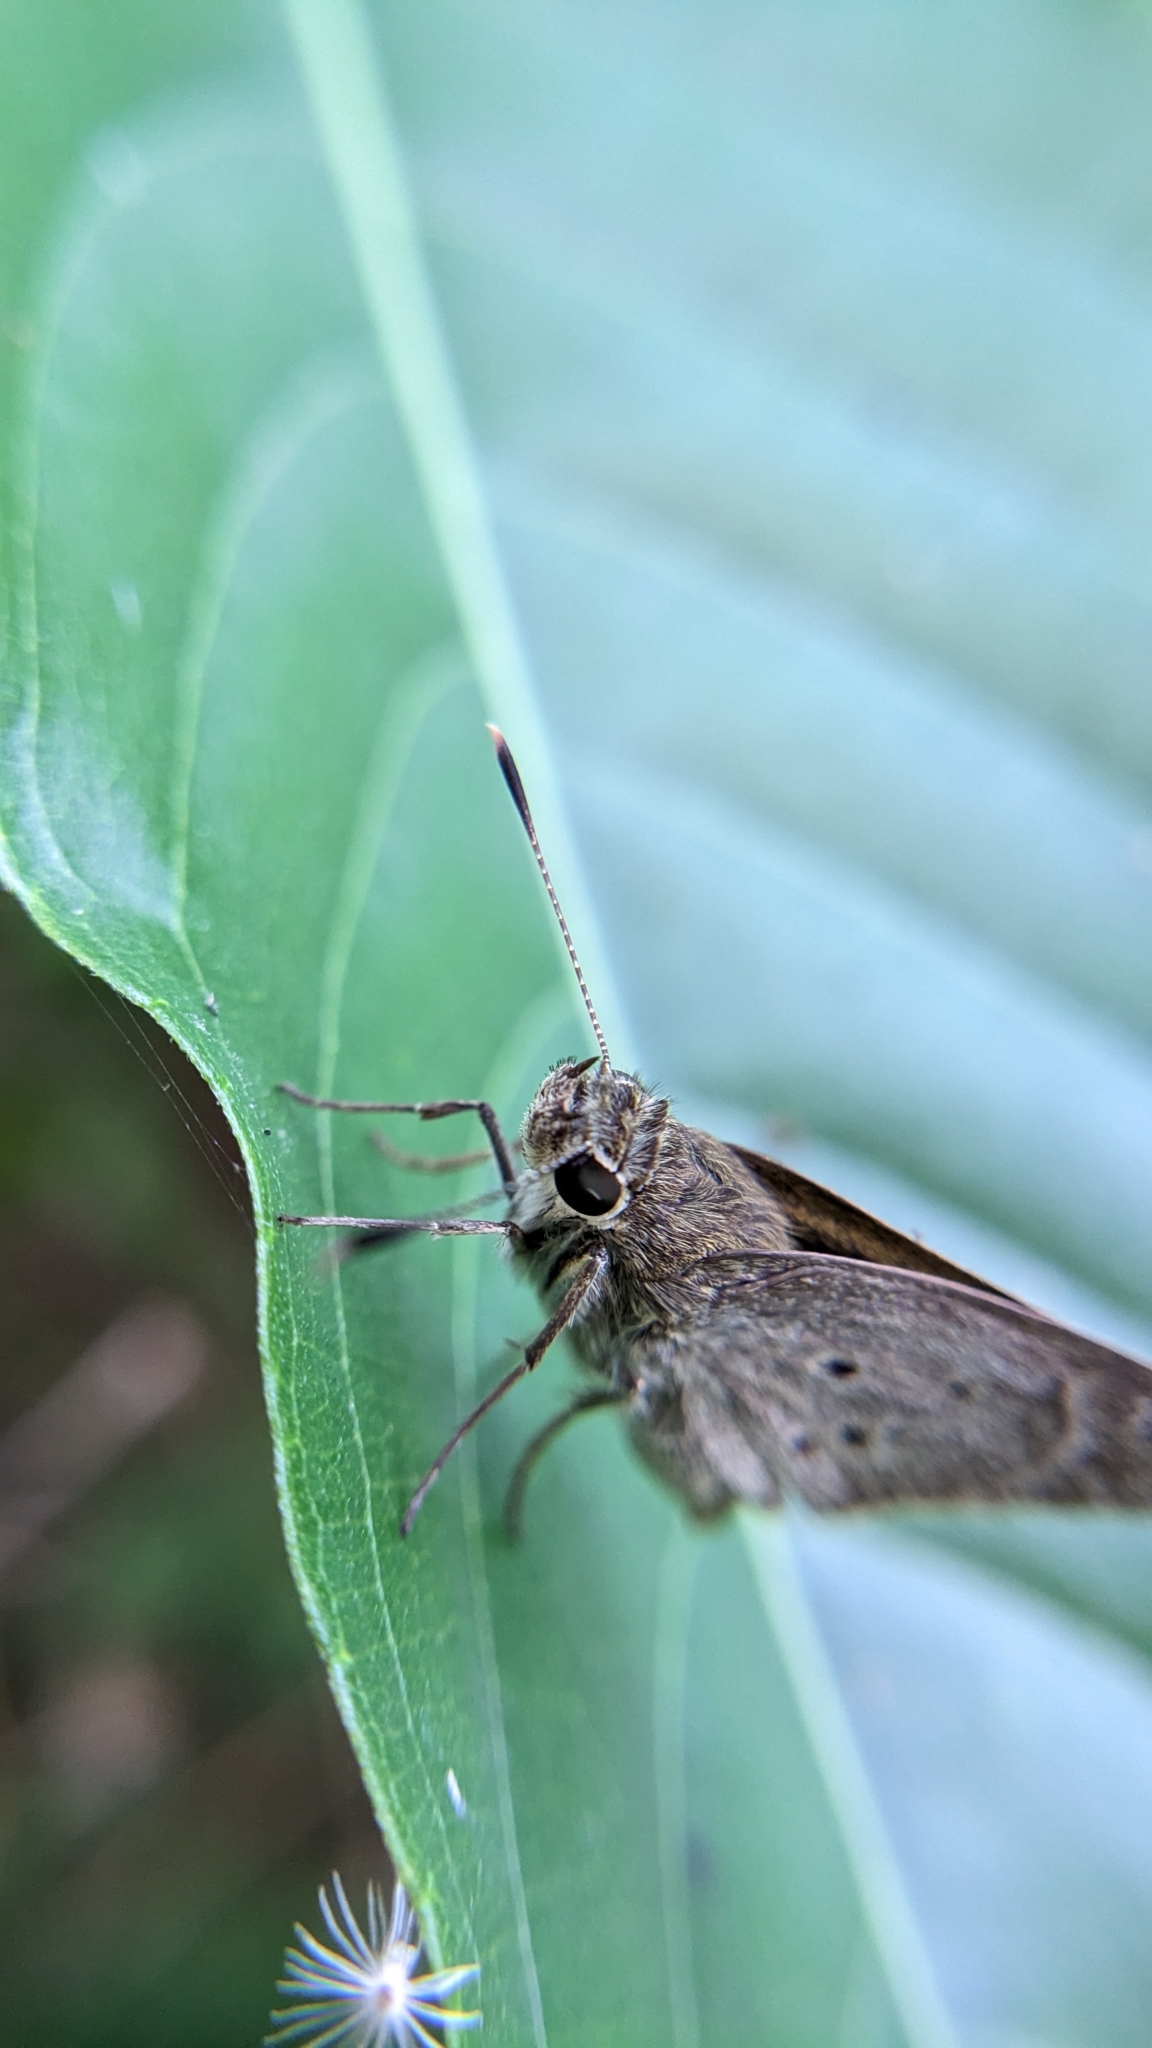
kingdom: Animalia
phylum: Arthropoda
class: Insecta
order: Lepidoptera
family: Hesperiidae
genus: Suastus
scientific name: Suastus gremius
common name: Indian palm bob
